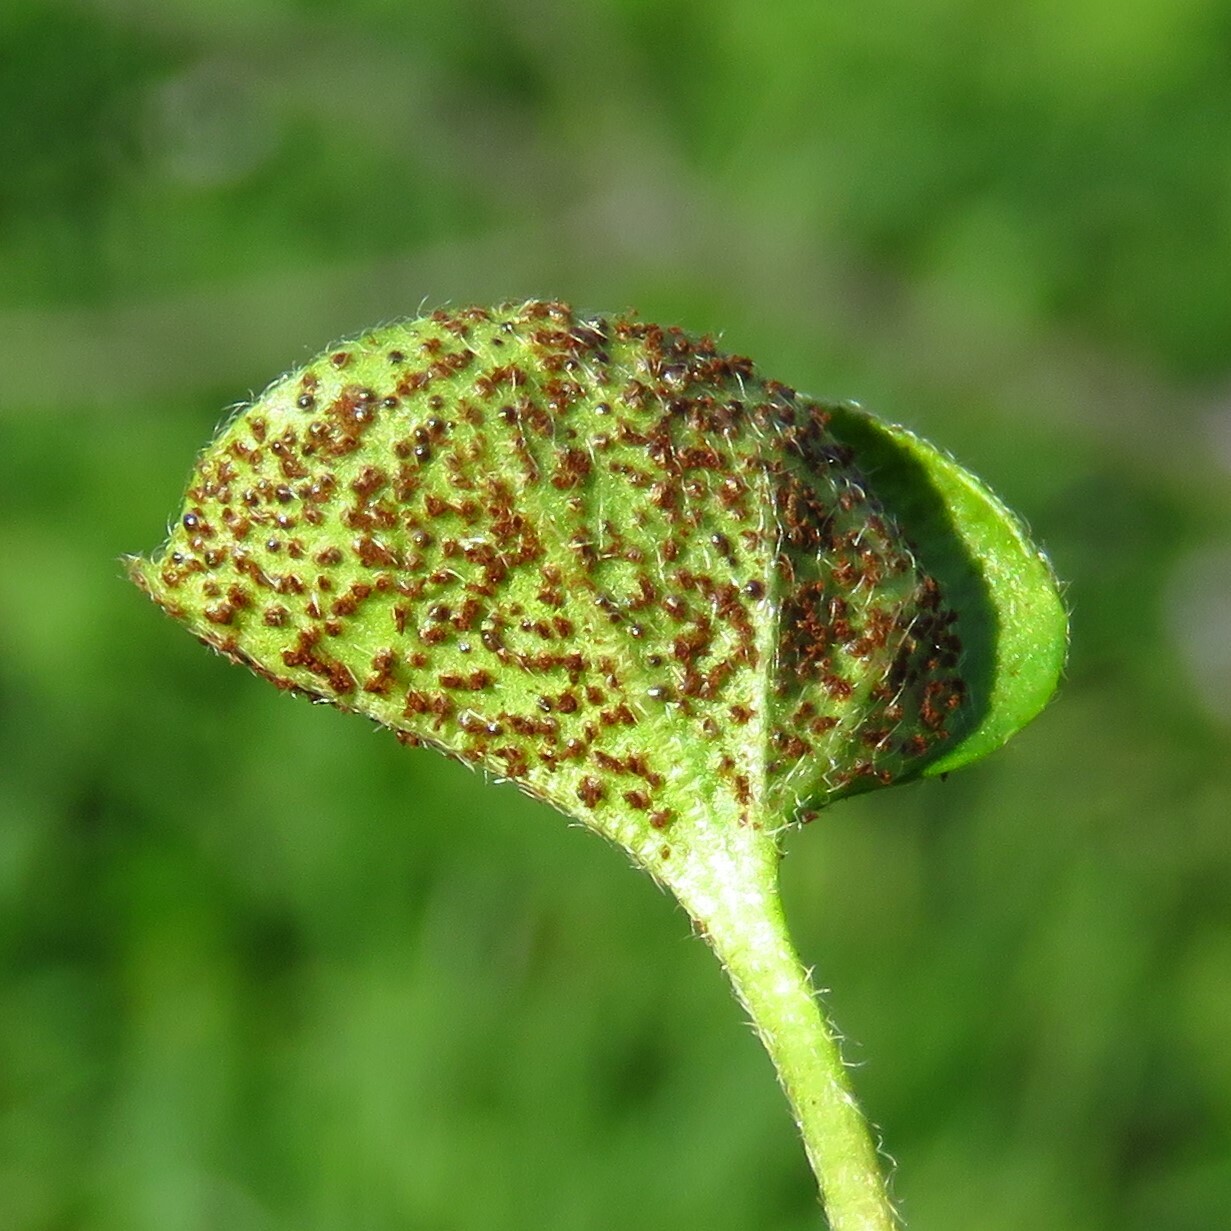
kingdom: Fungi
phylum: Basidiomycota
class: Pucciniomycetes
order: Pucciniales
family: Pucciniaceae
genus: Puccinia
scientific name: Puccinia dichondrae
